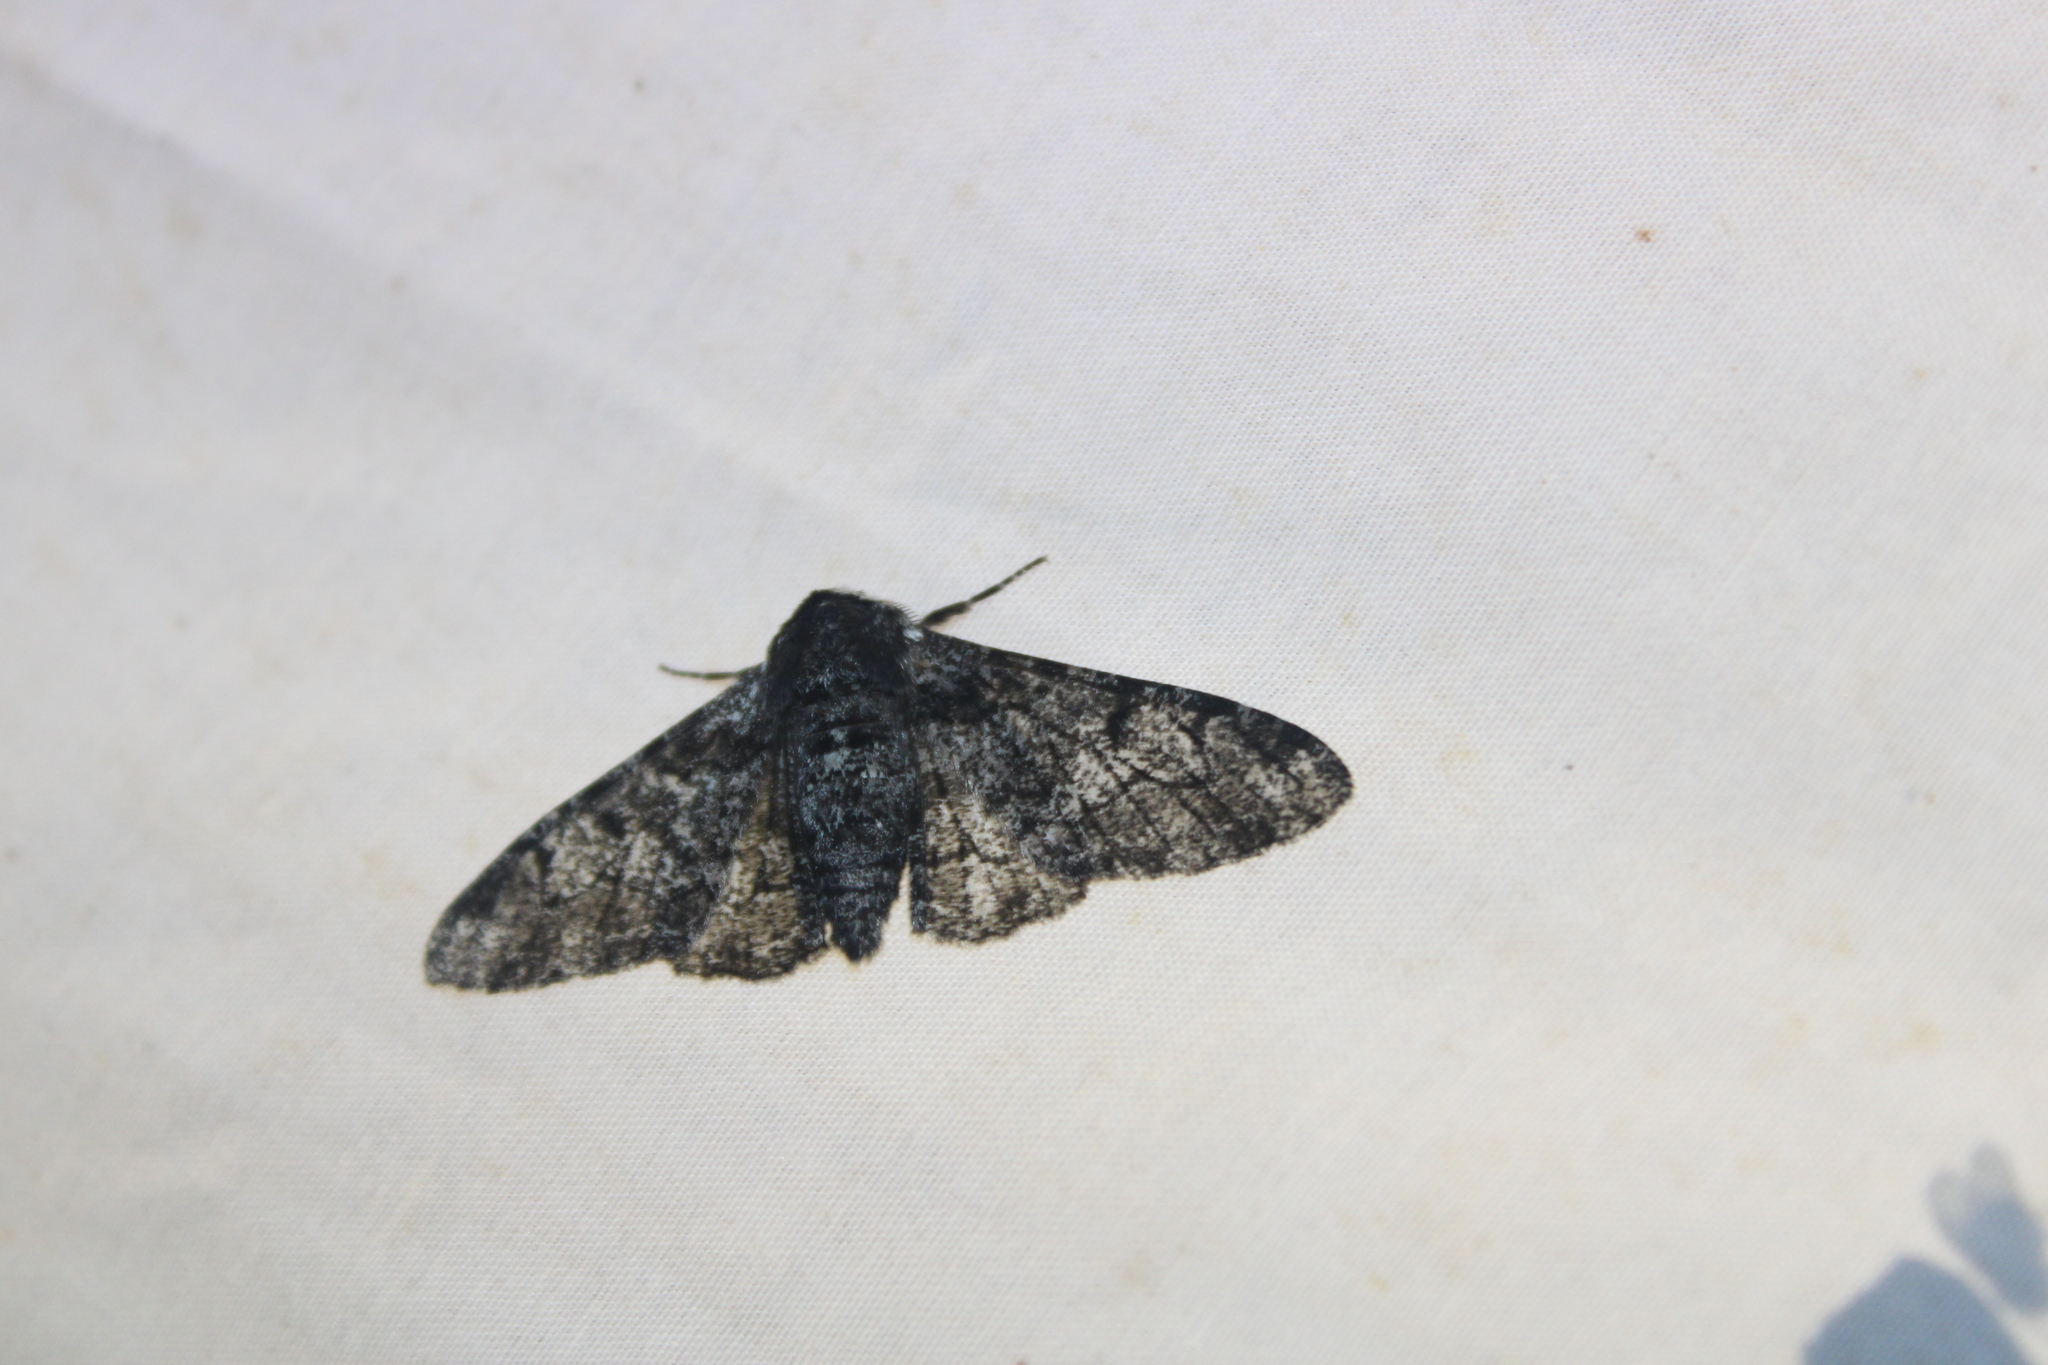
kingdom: Animalia
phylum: Arthropoda
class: Insecta
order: Lepidoptera
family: Geometridae
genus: Biston
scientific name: Biston betularia
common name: Peppered moth
